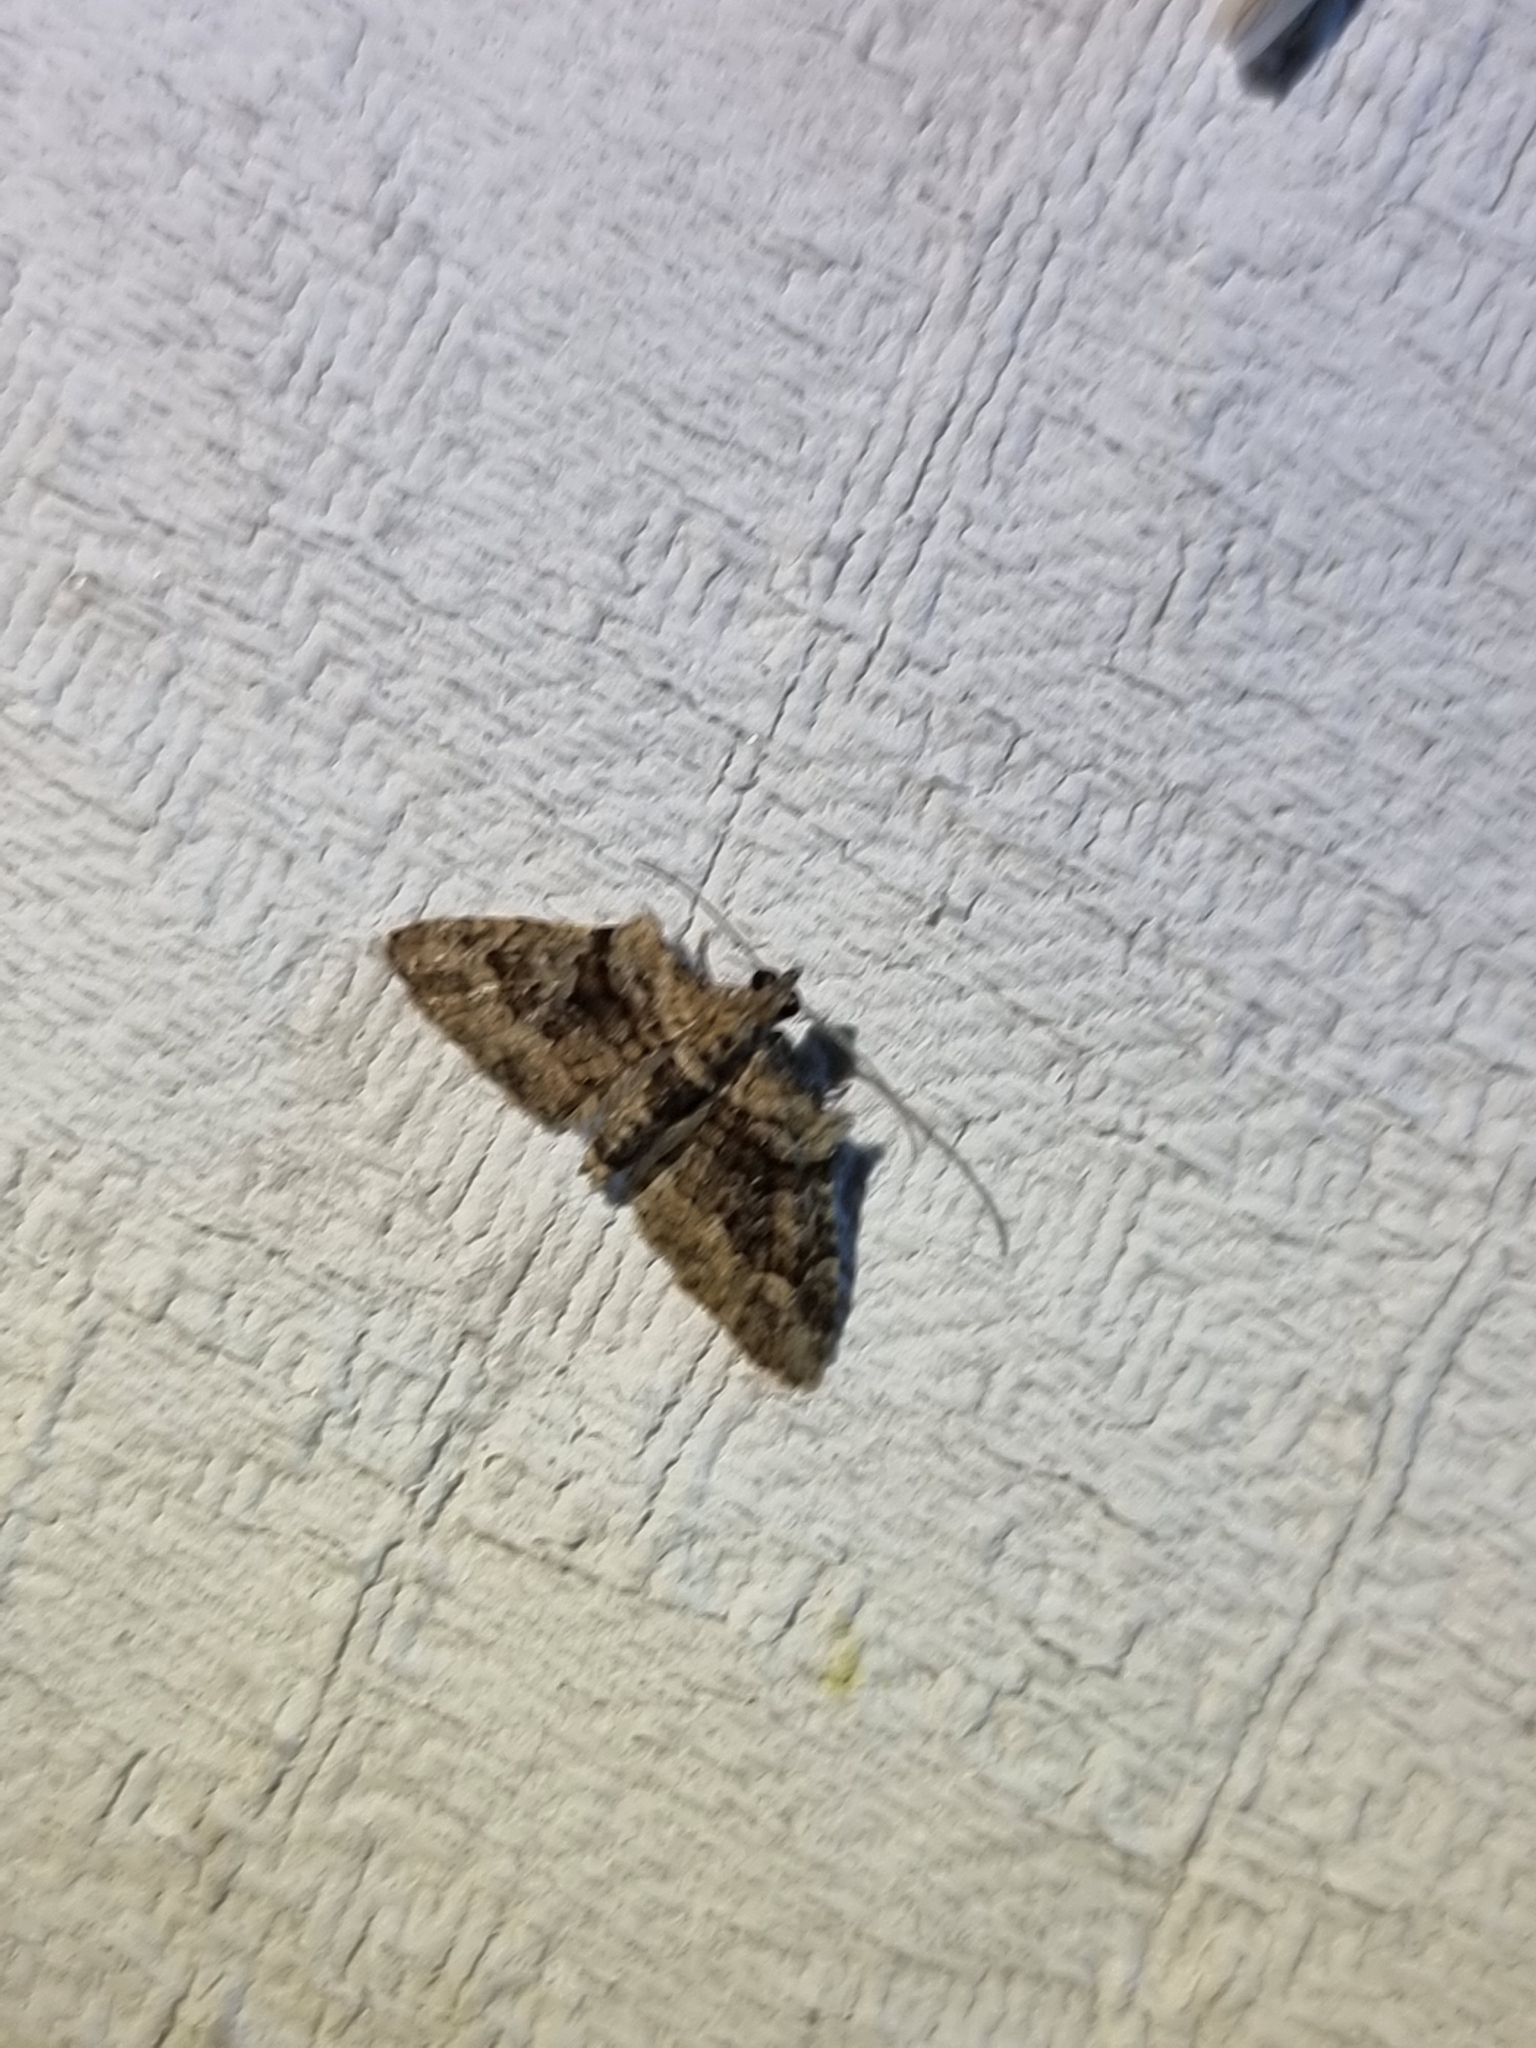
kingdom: Animalia
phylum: Arthropoda
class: Insecta
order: Lepidoptera
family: Geometridae
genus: Phrissogonus
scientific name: Phrissogonus laticostata
